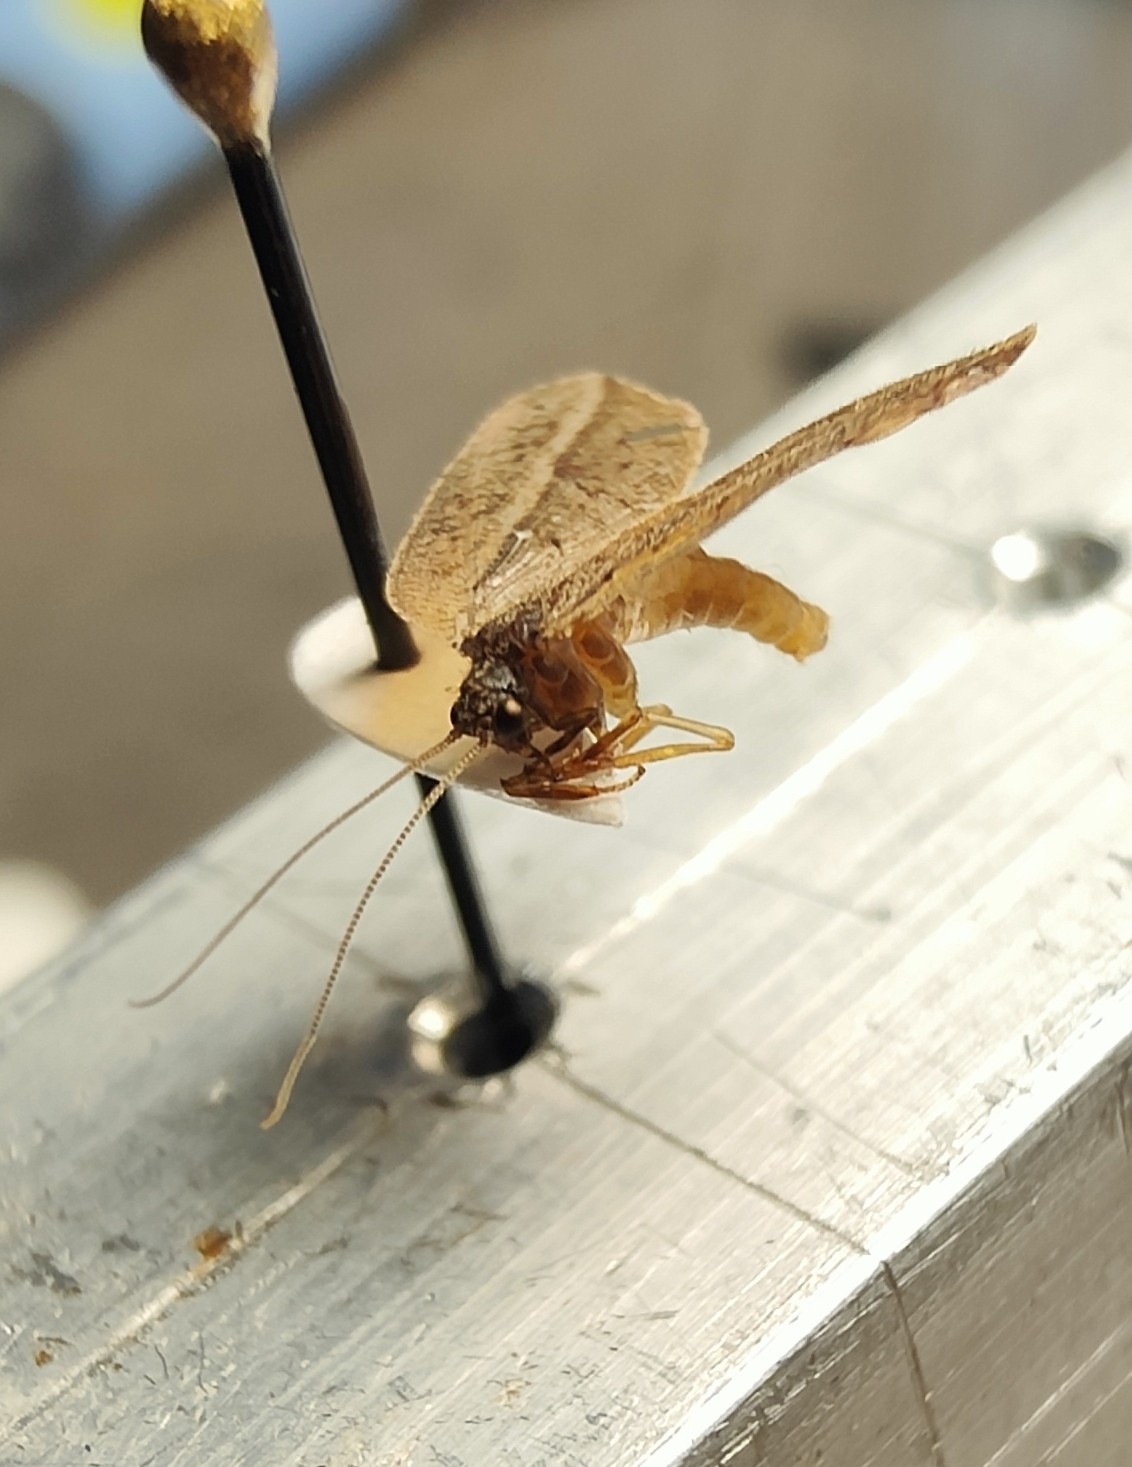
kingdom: Animalia
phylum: Arthropoda
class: Insecta
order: Neuroptera
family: Hemerobiidae
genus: Drepanacra
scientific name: Drepanacra binocula
